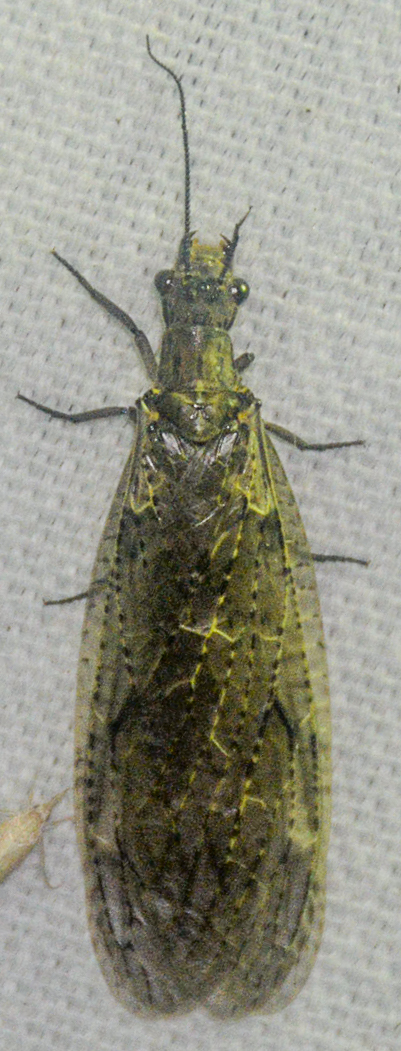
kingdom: Animalia
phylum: Arthropoda
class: Insecta
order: Megaloptera
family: Corydalidae
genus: Chauliodes
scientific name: Chauliodes rastricornis
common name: Spring fishfly
